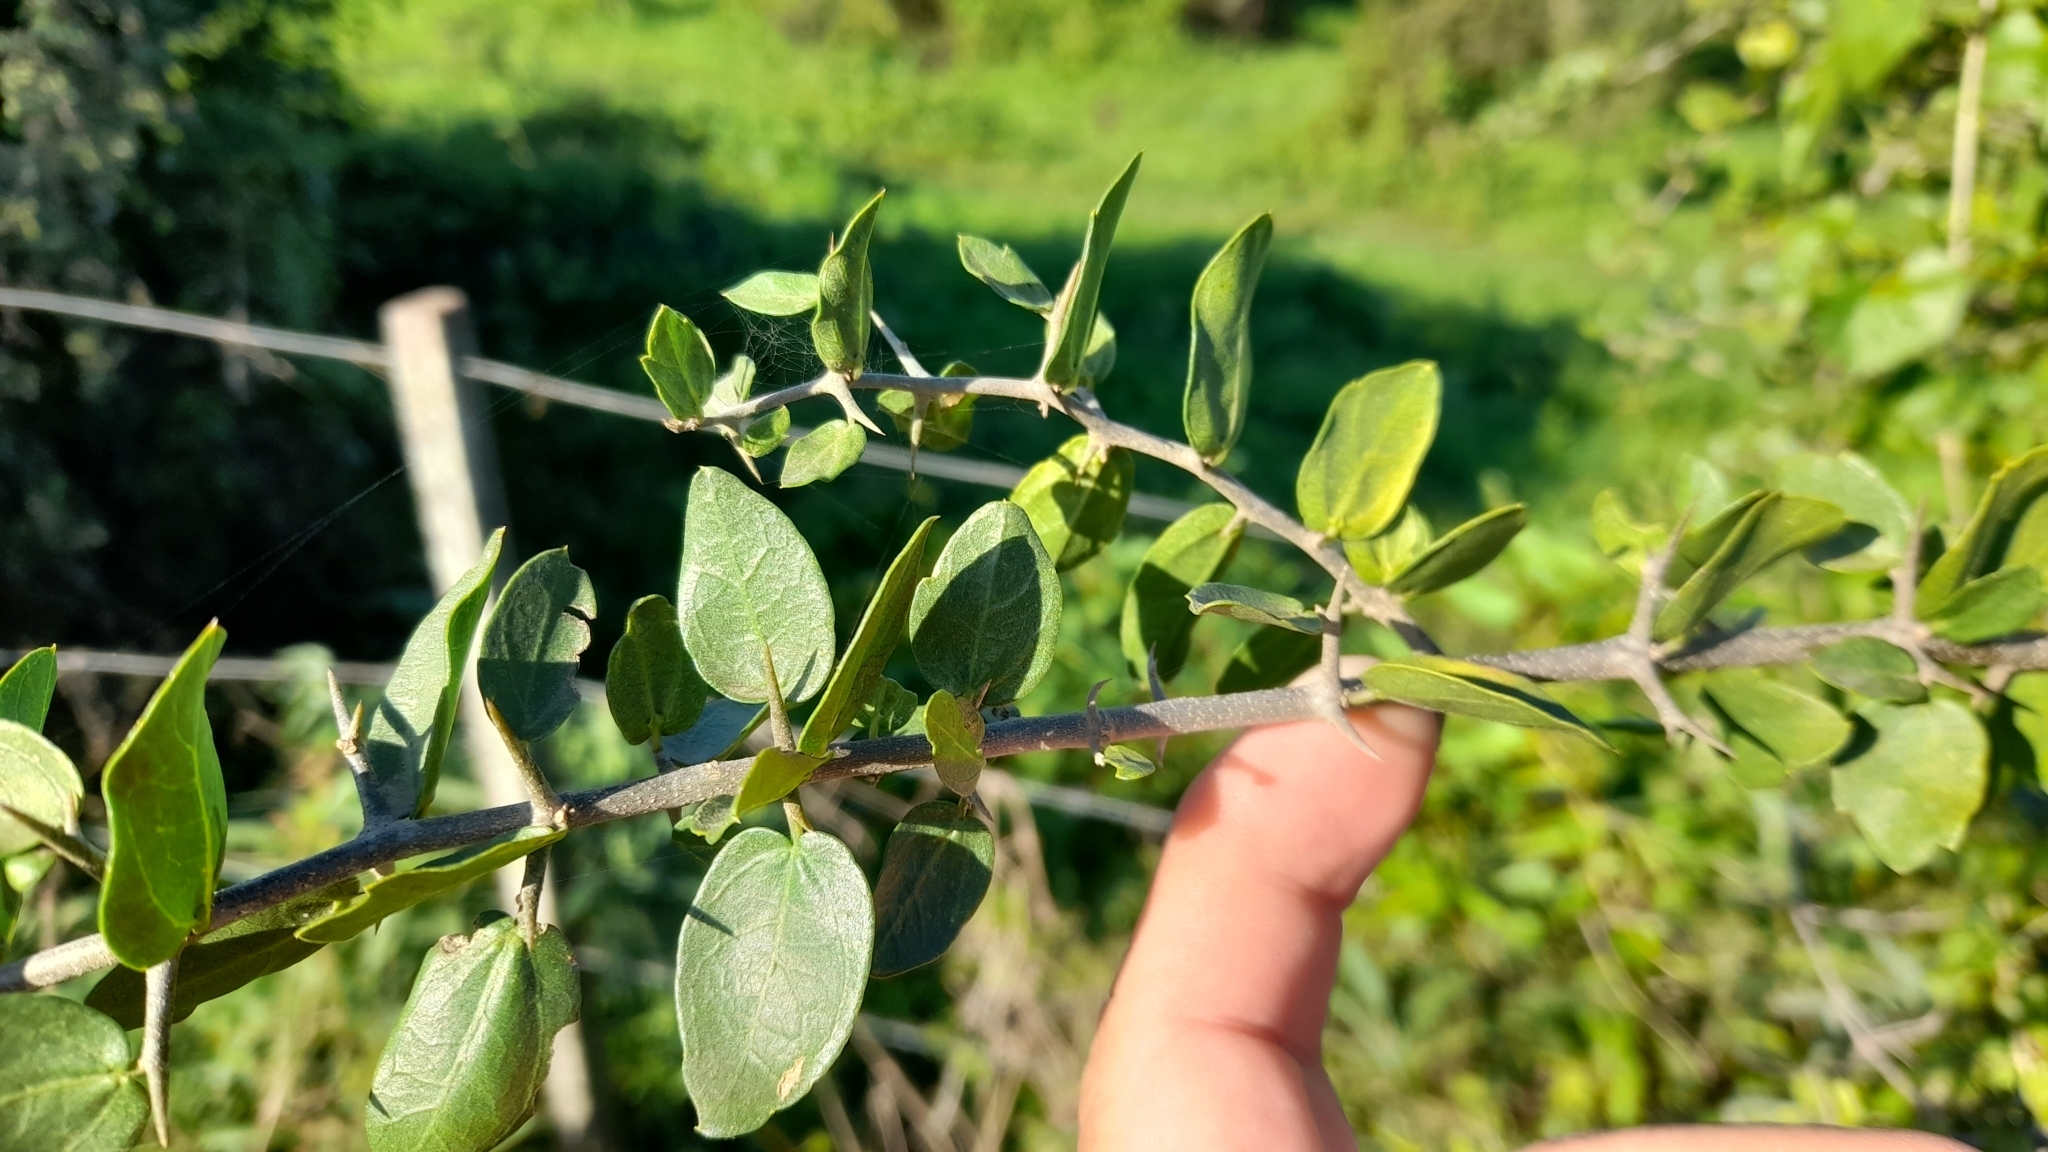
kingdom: Plantae
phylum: Tracheophyta
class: Magnoliopsida
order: Rosales
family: Cannabaceae
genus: Celtis
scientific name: Celtis tala
